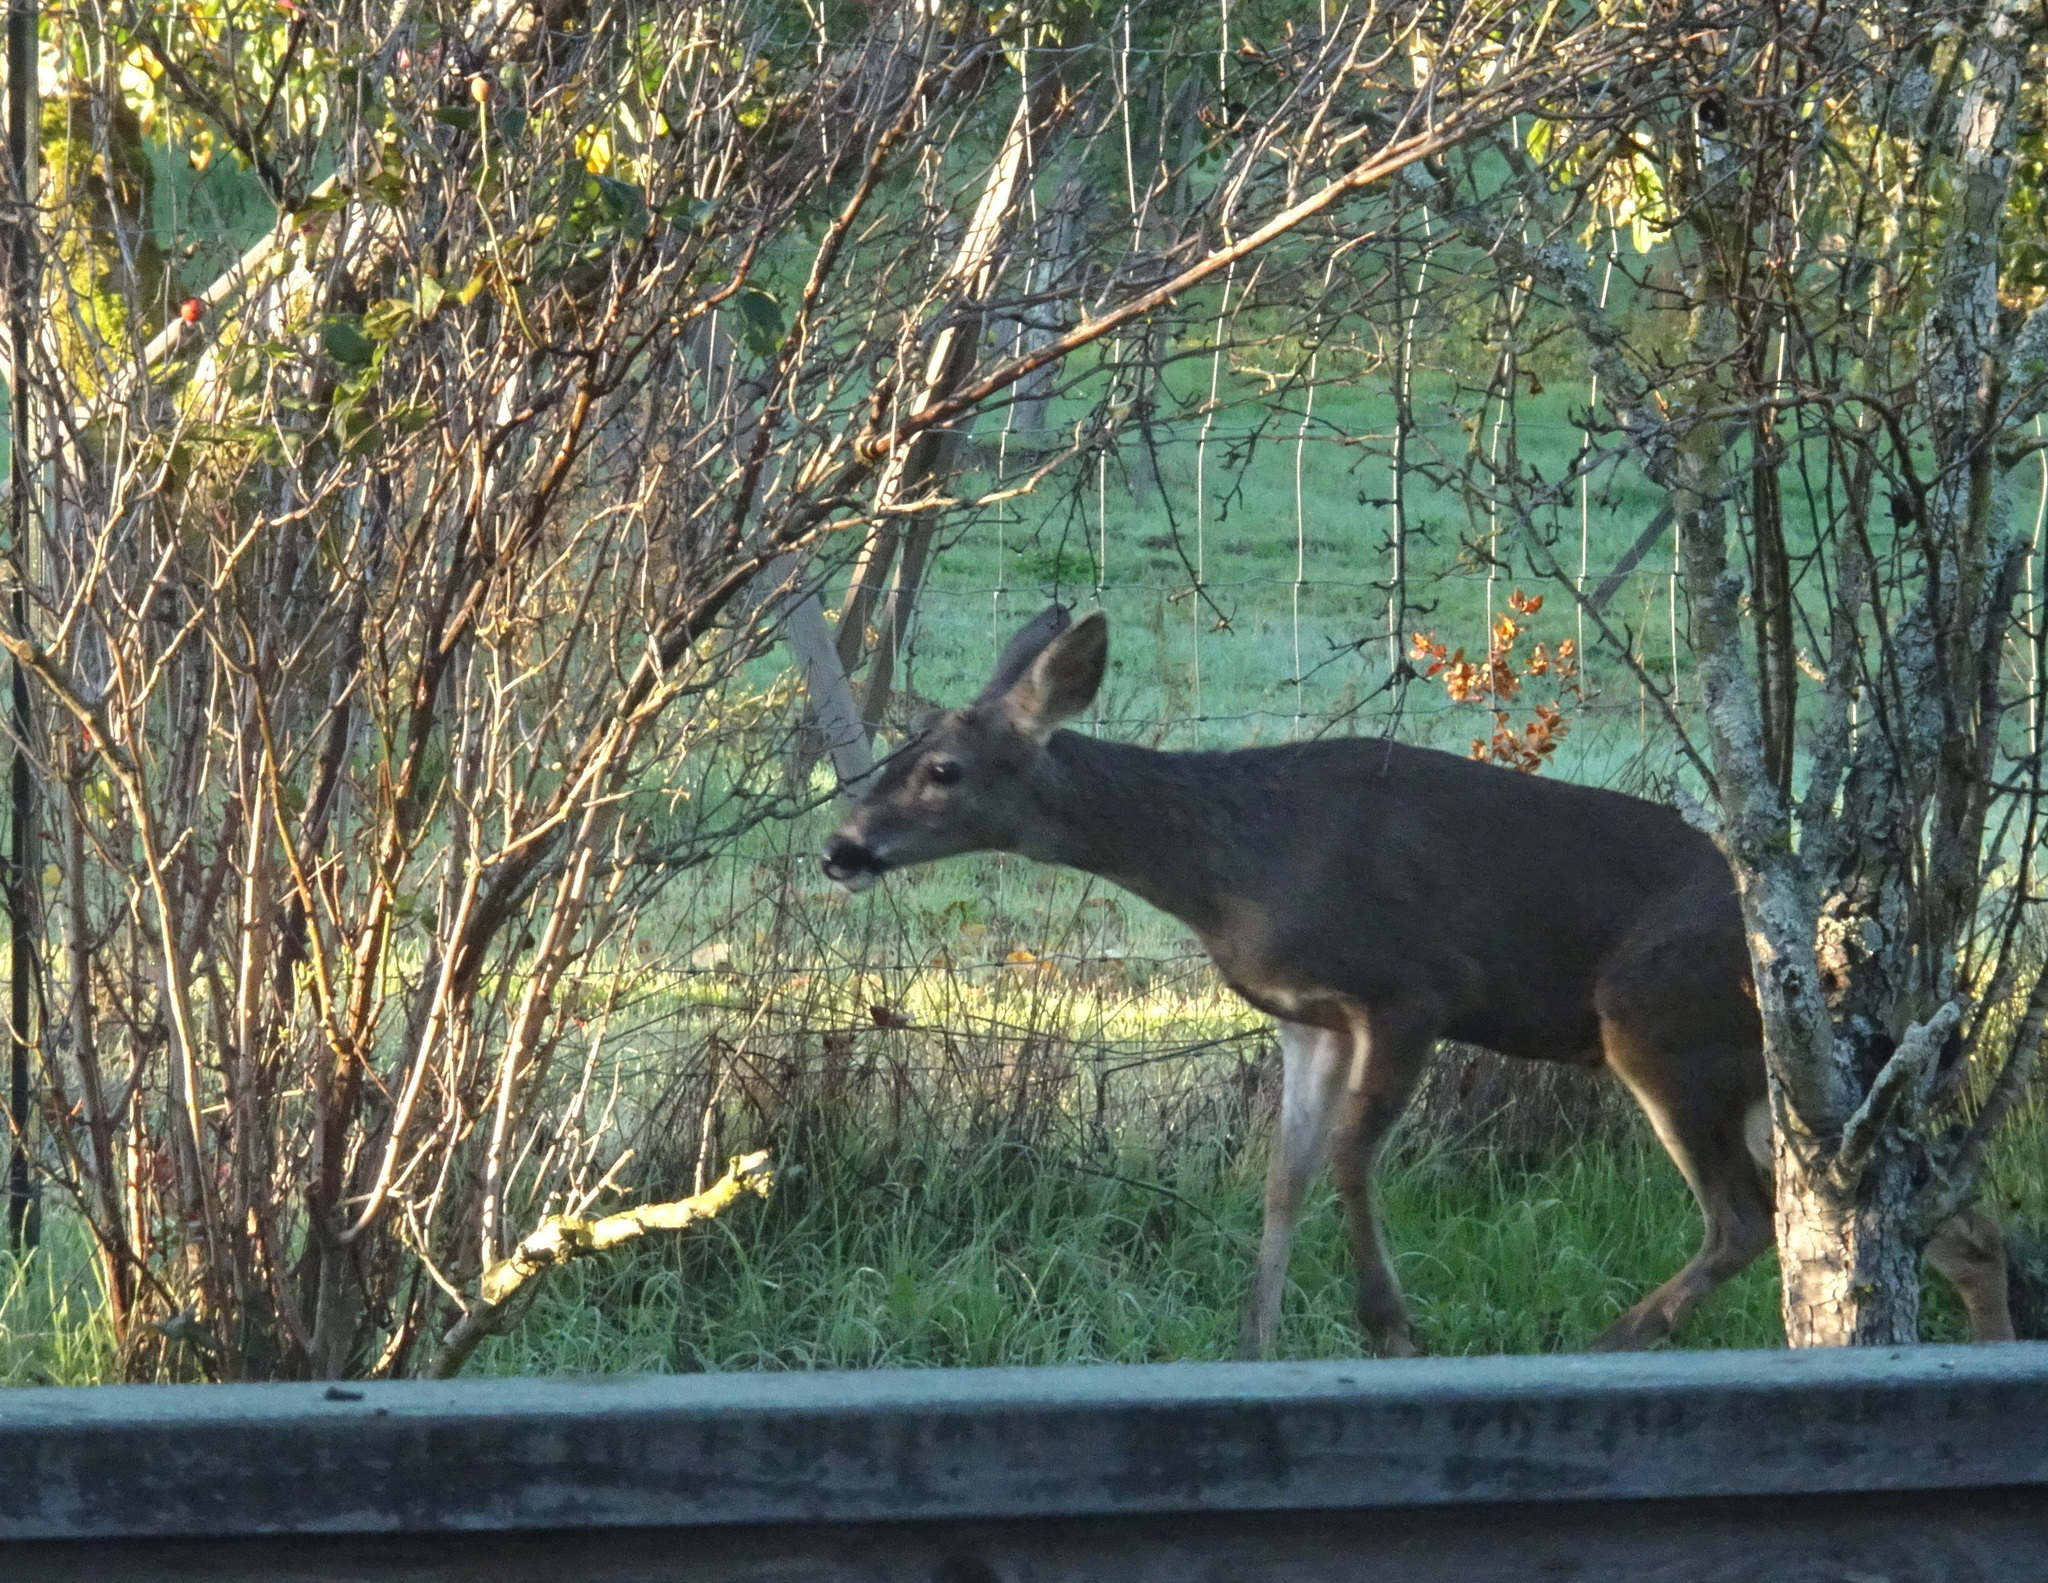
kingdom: Animalia
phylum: Chordata
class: Mammalia
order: Artiodactyla
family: Cervidae
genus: Odocoileus
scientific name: Odocoileus hemionus
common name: Mule deer
